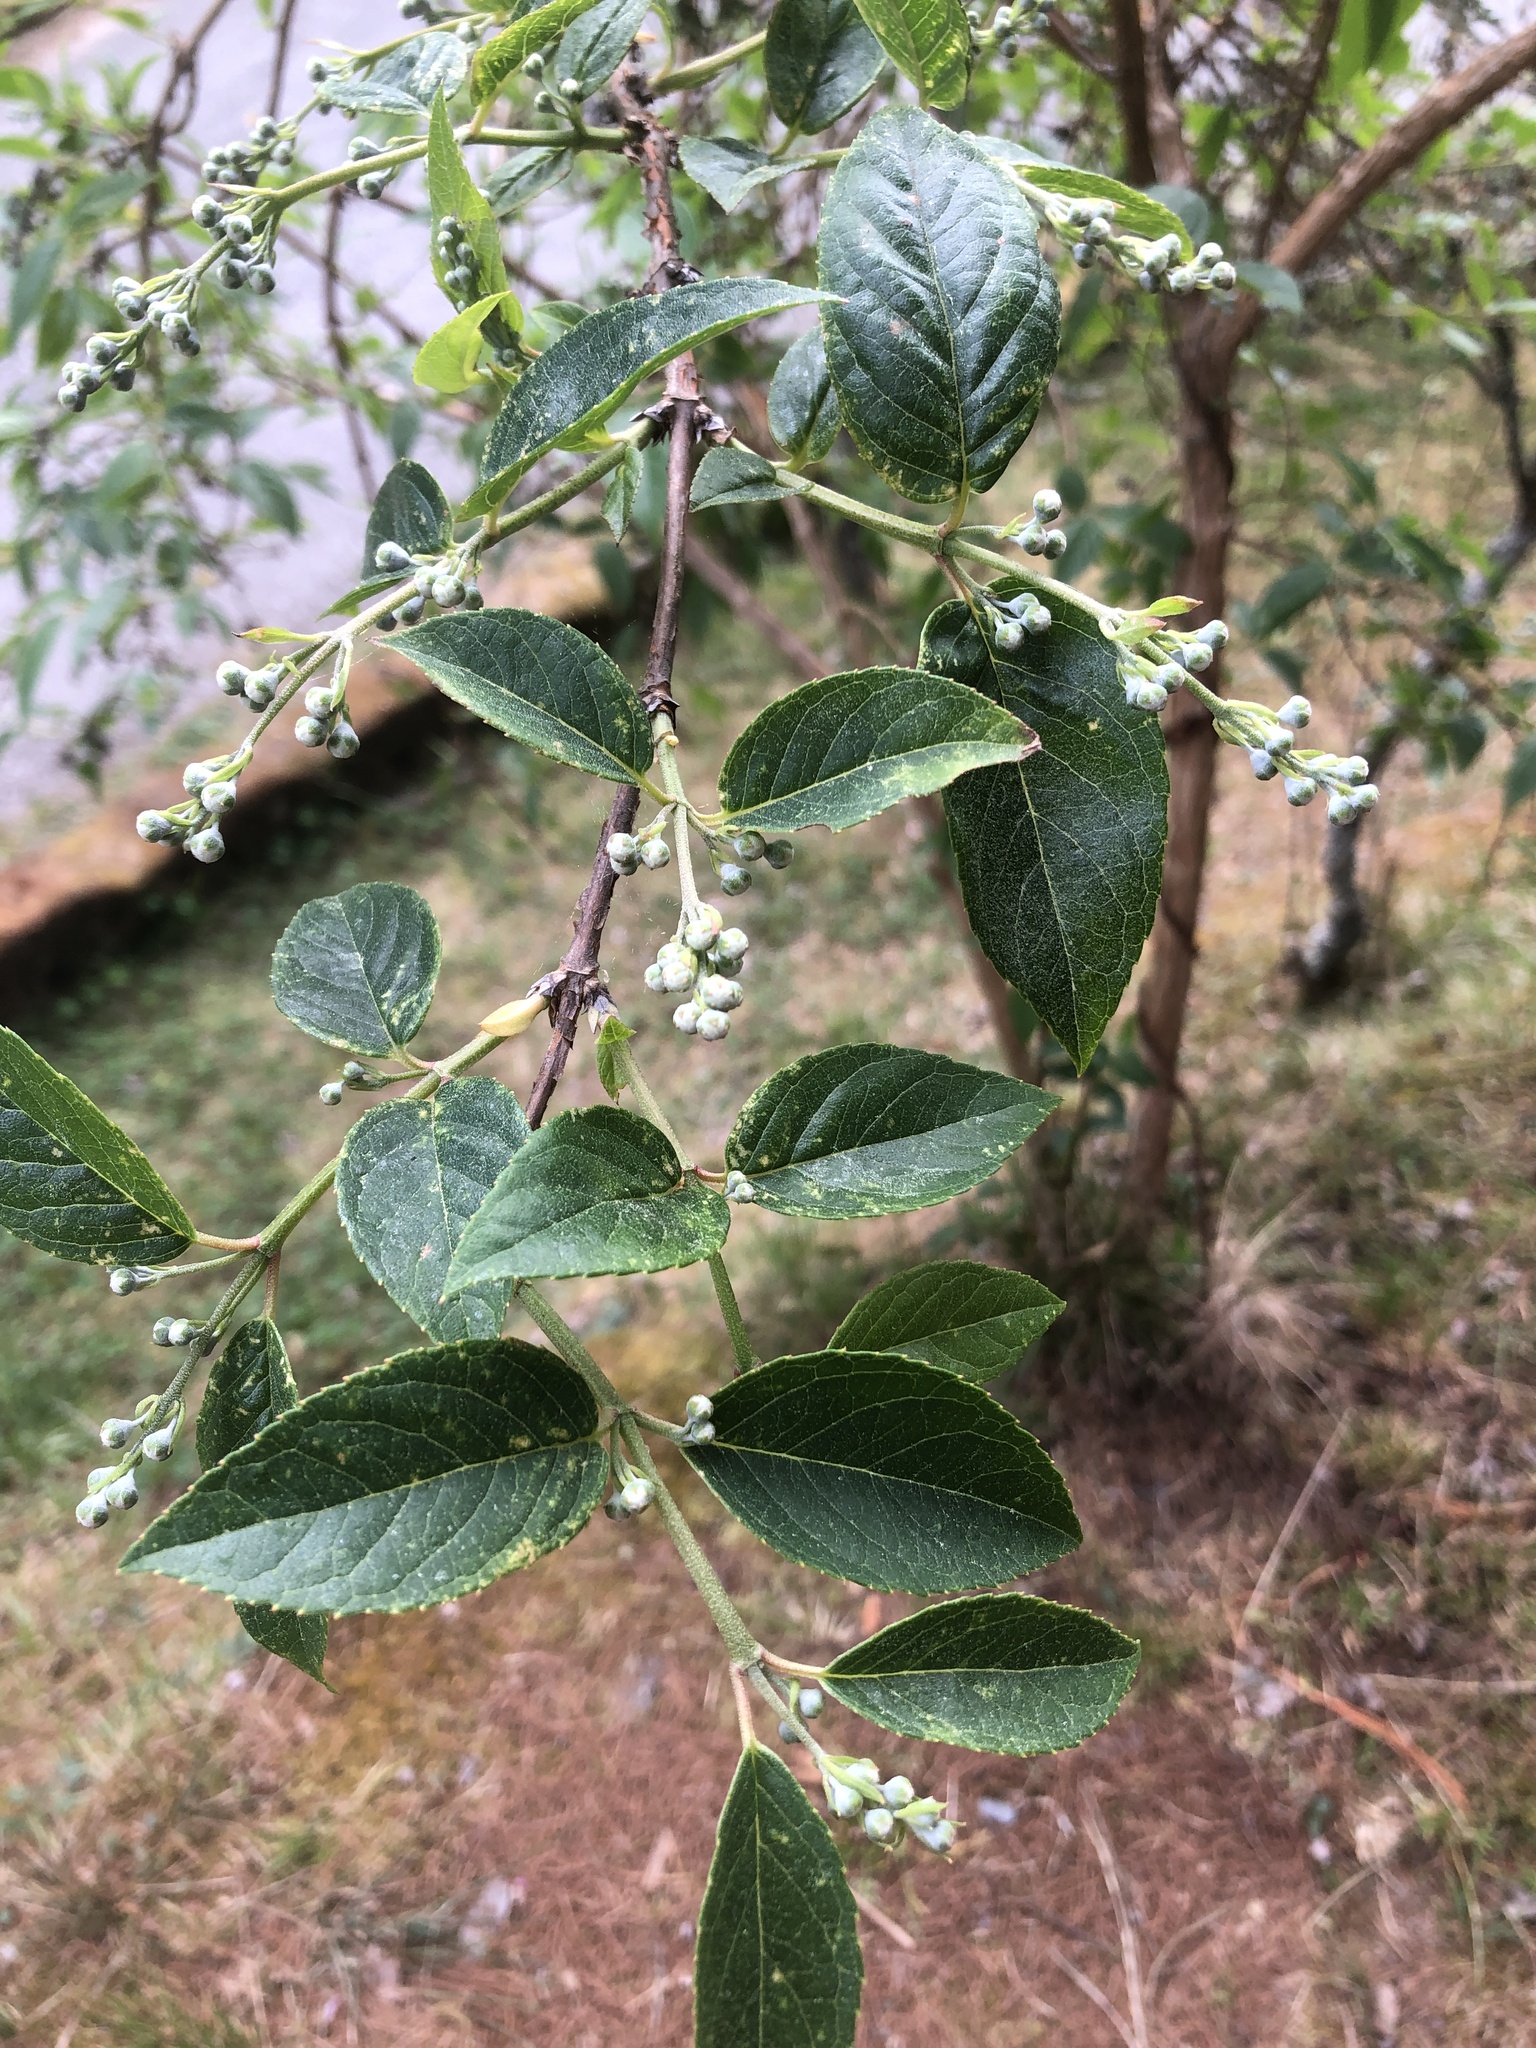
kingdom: Plantae
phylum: Tracheophyta
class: Magnoliopsida
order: Cornales
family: Hydrangeaceae
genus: Deutzia
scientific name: Deutzia pulchra
